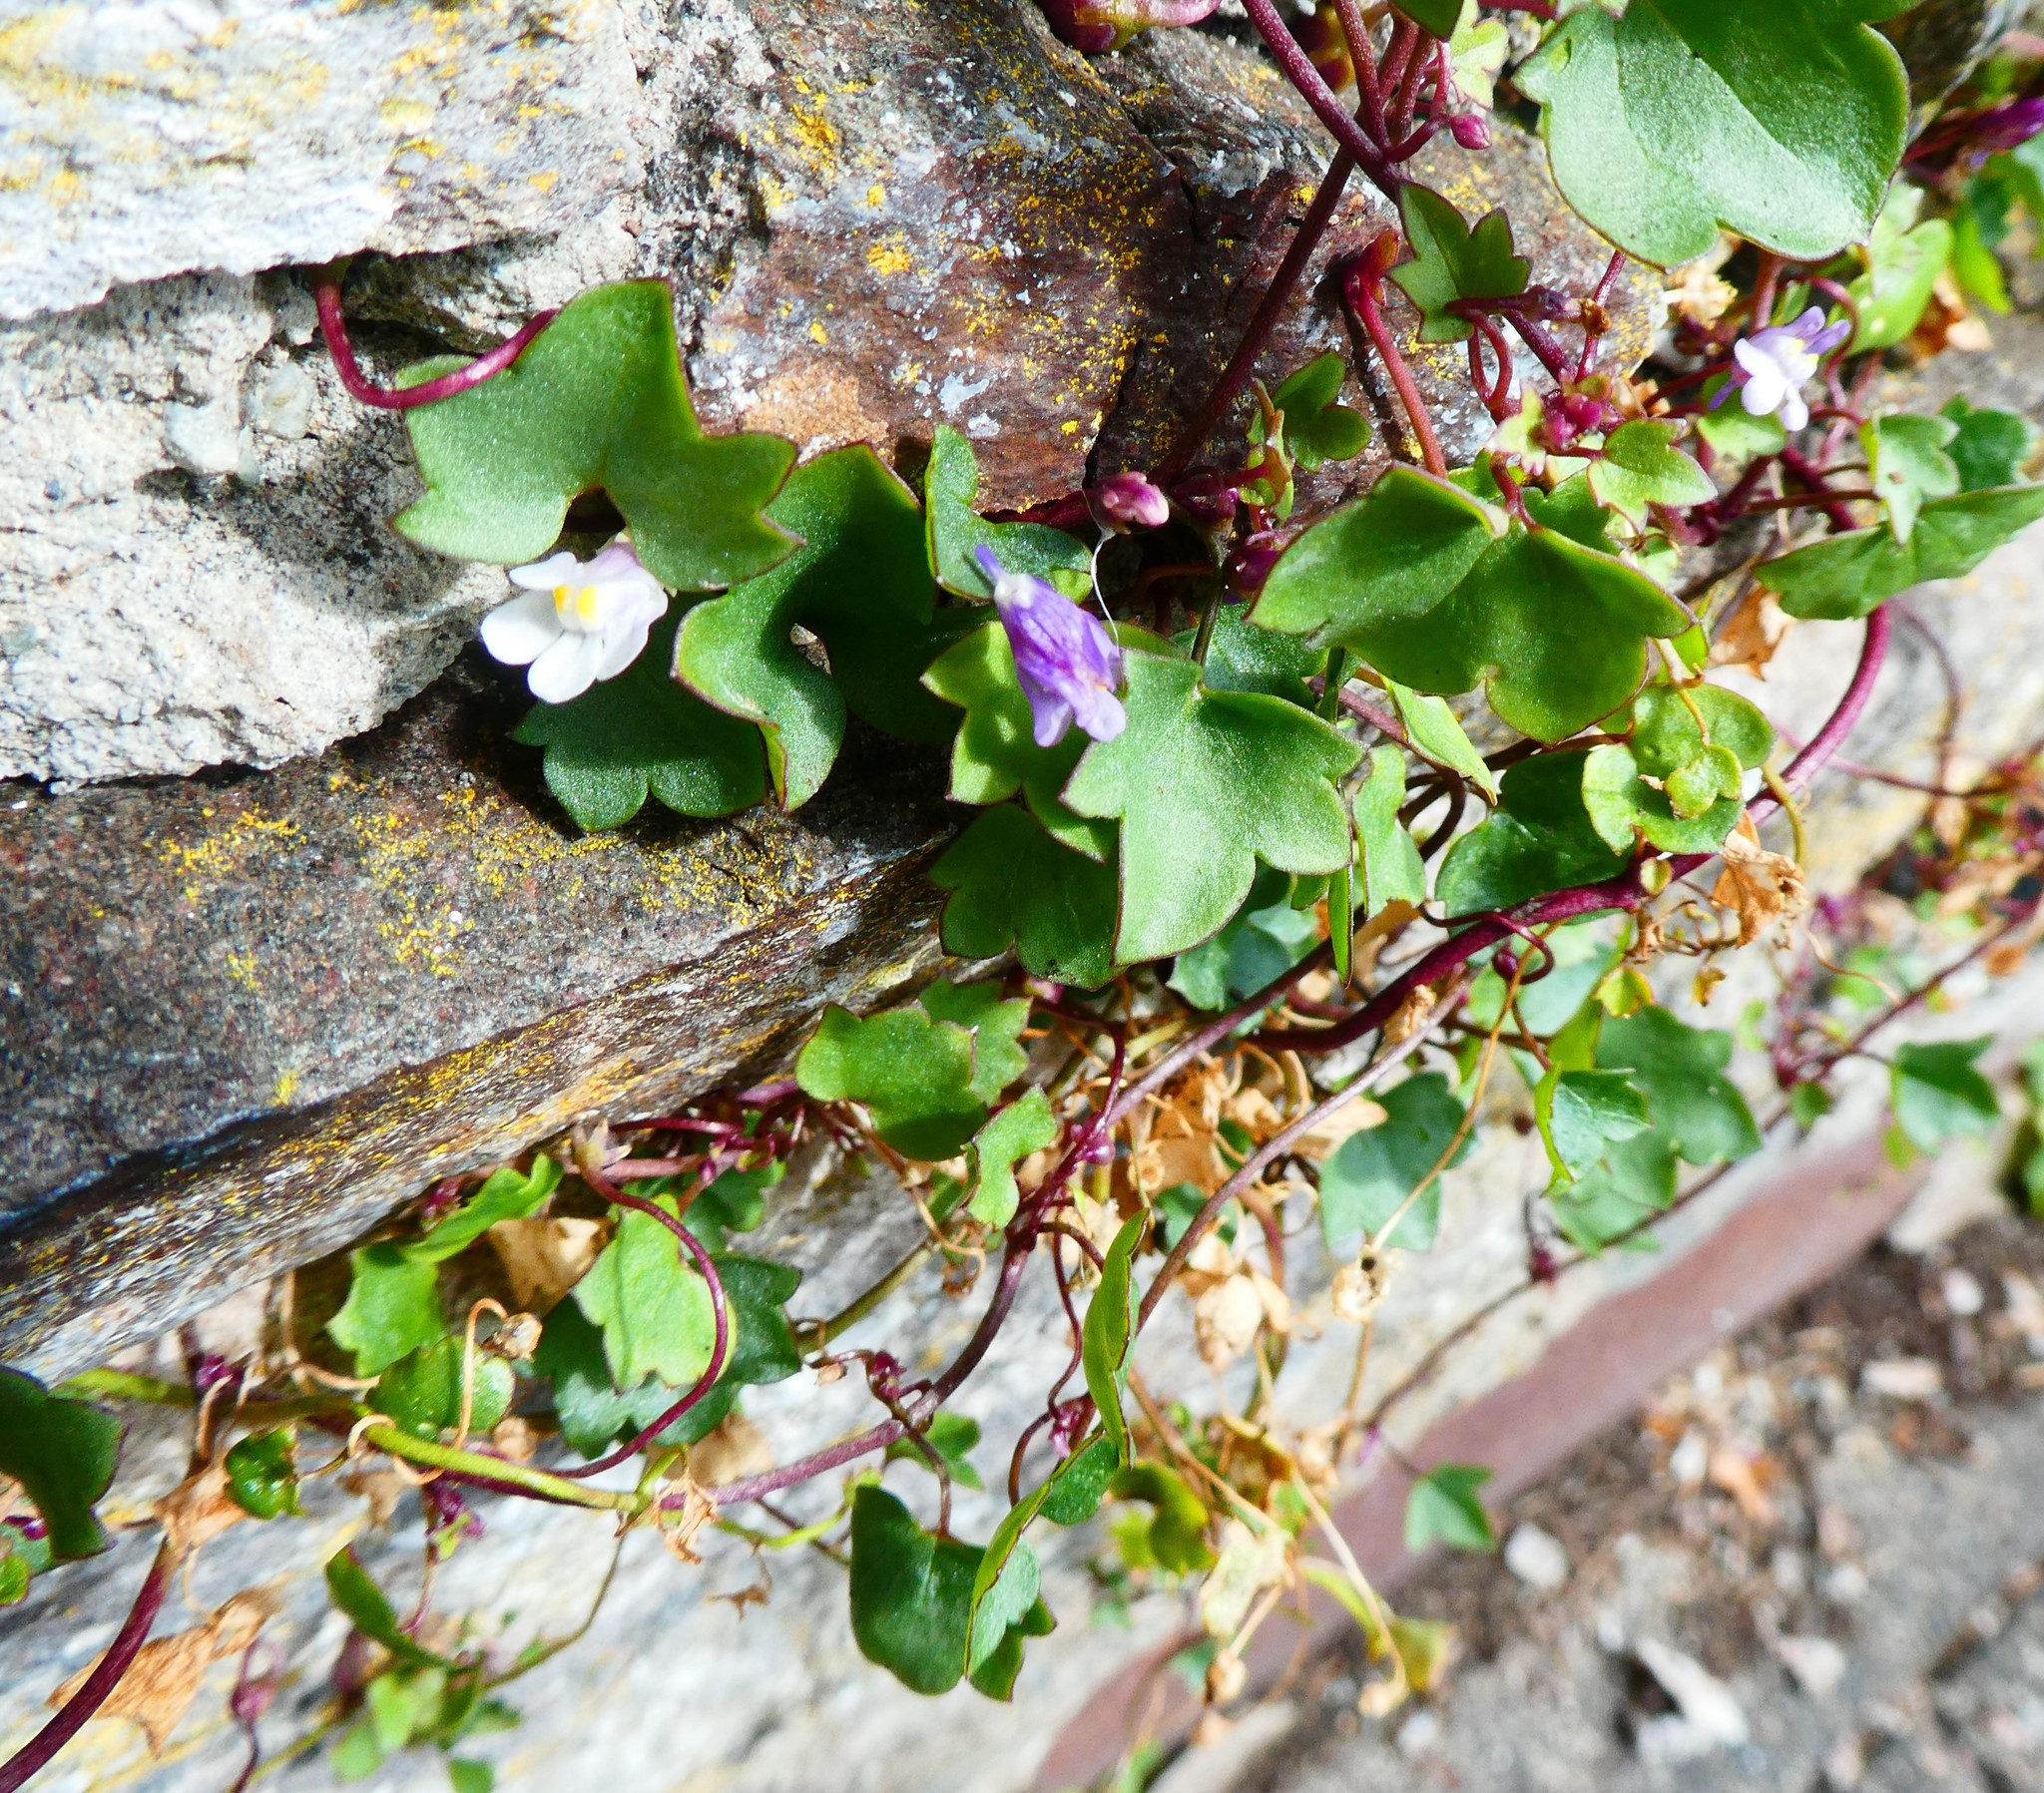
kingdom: Plantae
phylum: Tracheophyta
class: Magnoliopsida
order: Lamiales
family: Plantaginaceae
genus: Cymbalaria
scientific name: Cymbalaria muralis
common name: Ivy-leaved toadflax
